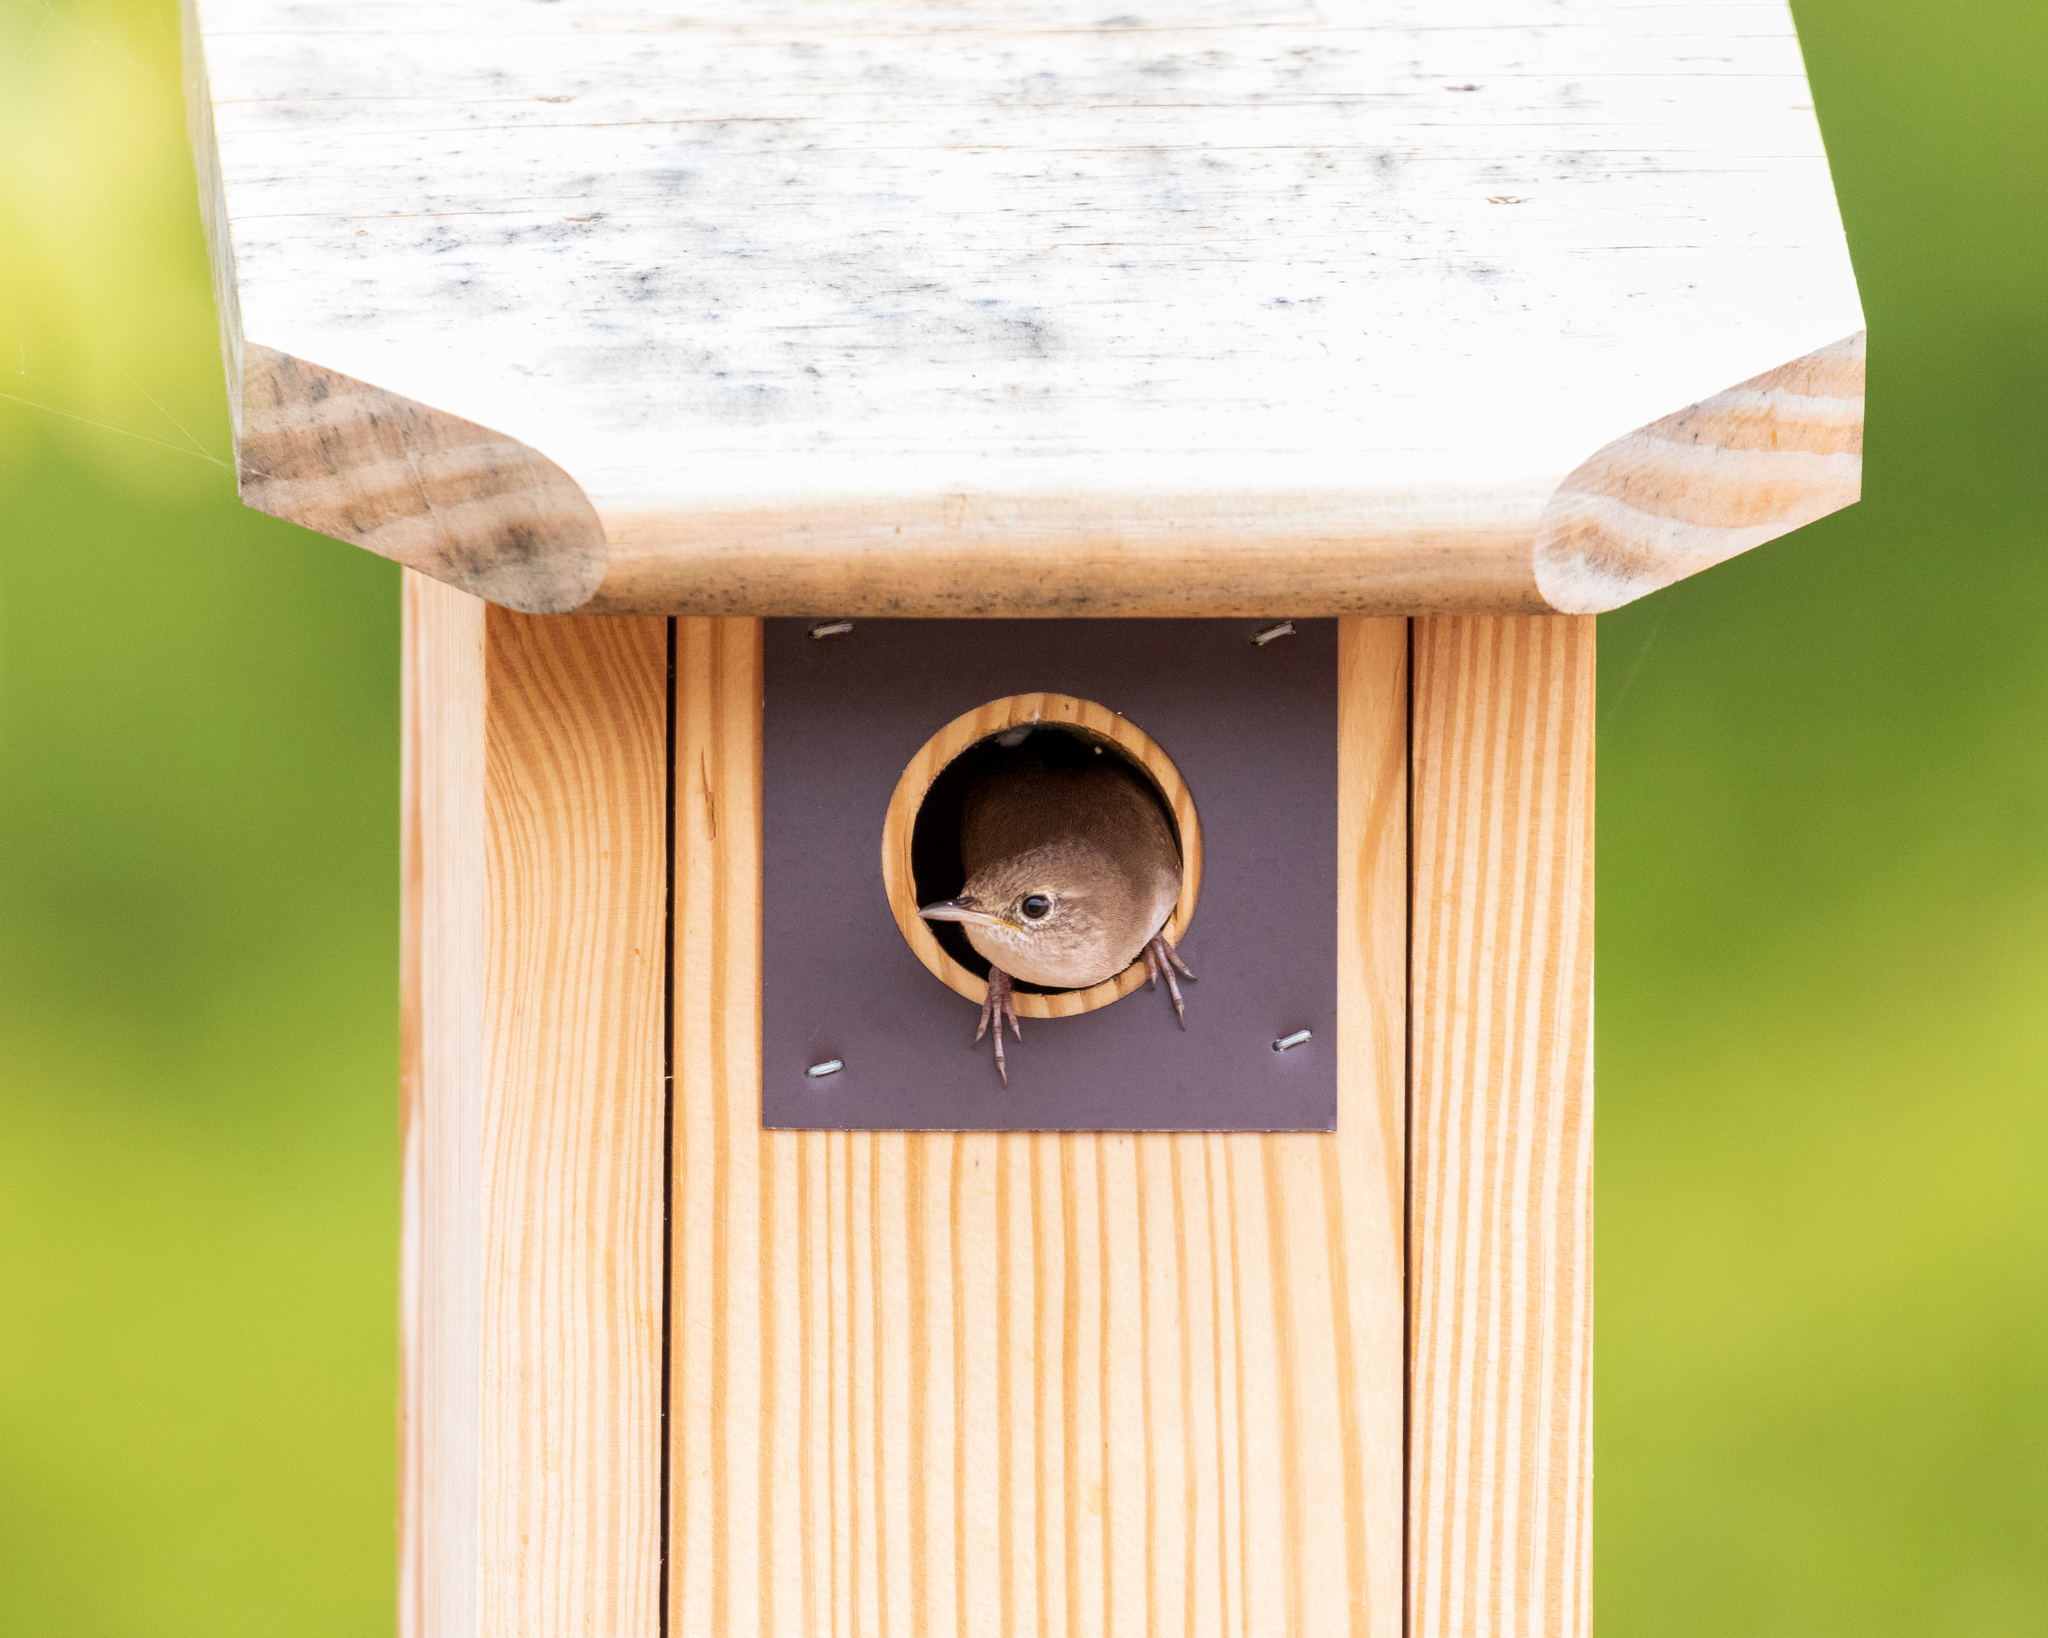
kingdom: Animalia
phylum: Chordata
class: Aves
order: Passeriformes
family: Troglodytidae
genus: Troglodytes
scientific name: Troglodytes aedon
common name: House wren
